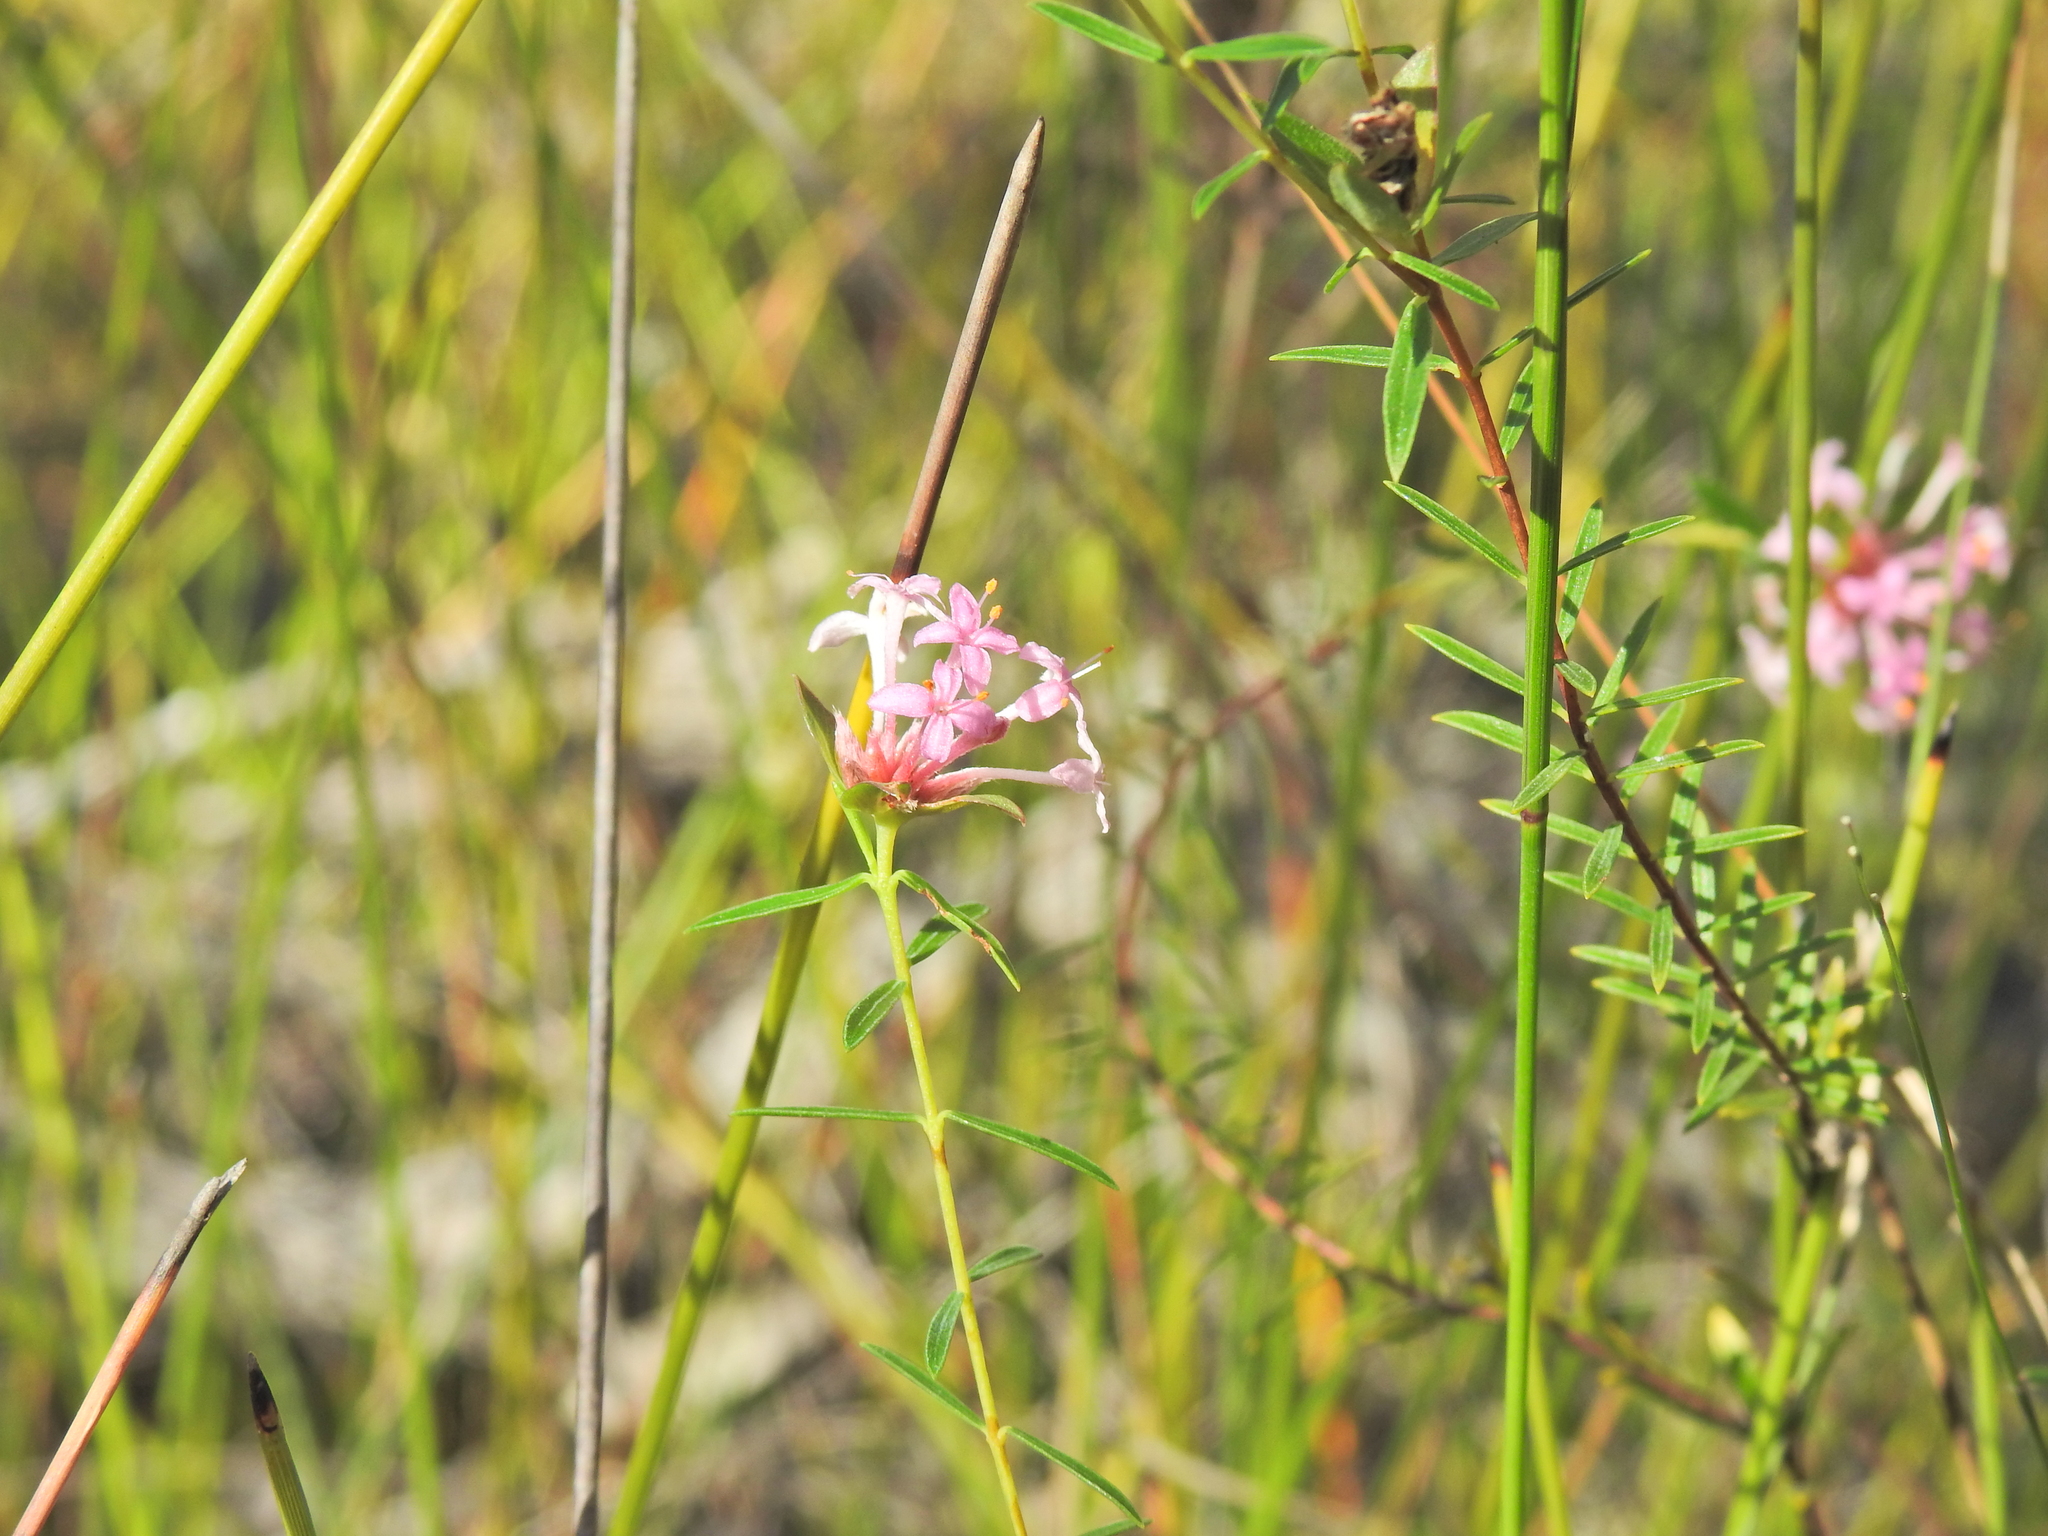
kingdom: Plantae
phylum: Tracheophyta
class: Magnoliopsida
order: Malvales
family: Thymelaeaceae
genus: Pimelea
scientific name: Pimelea linifolia
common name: Queen-of-the-bush
